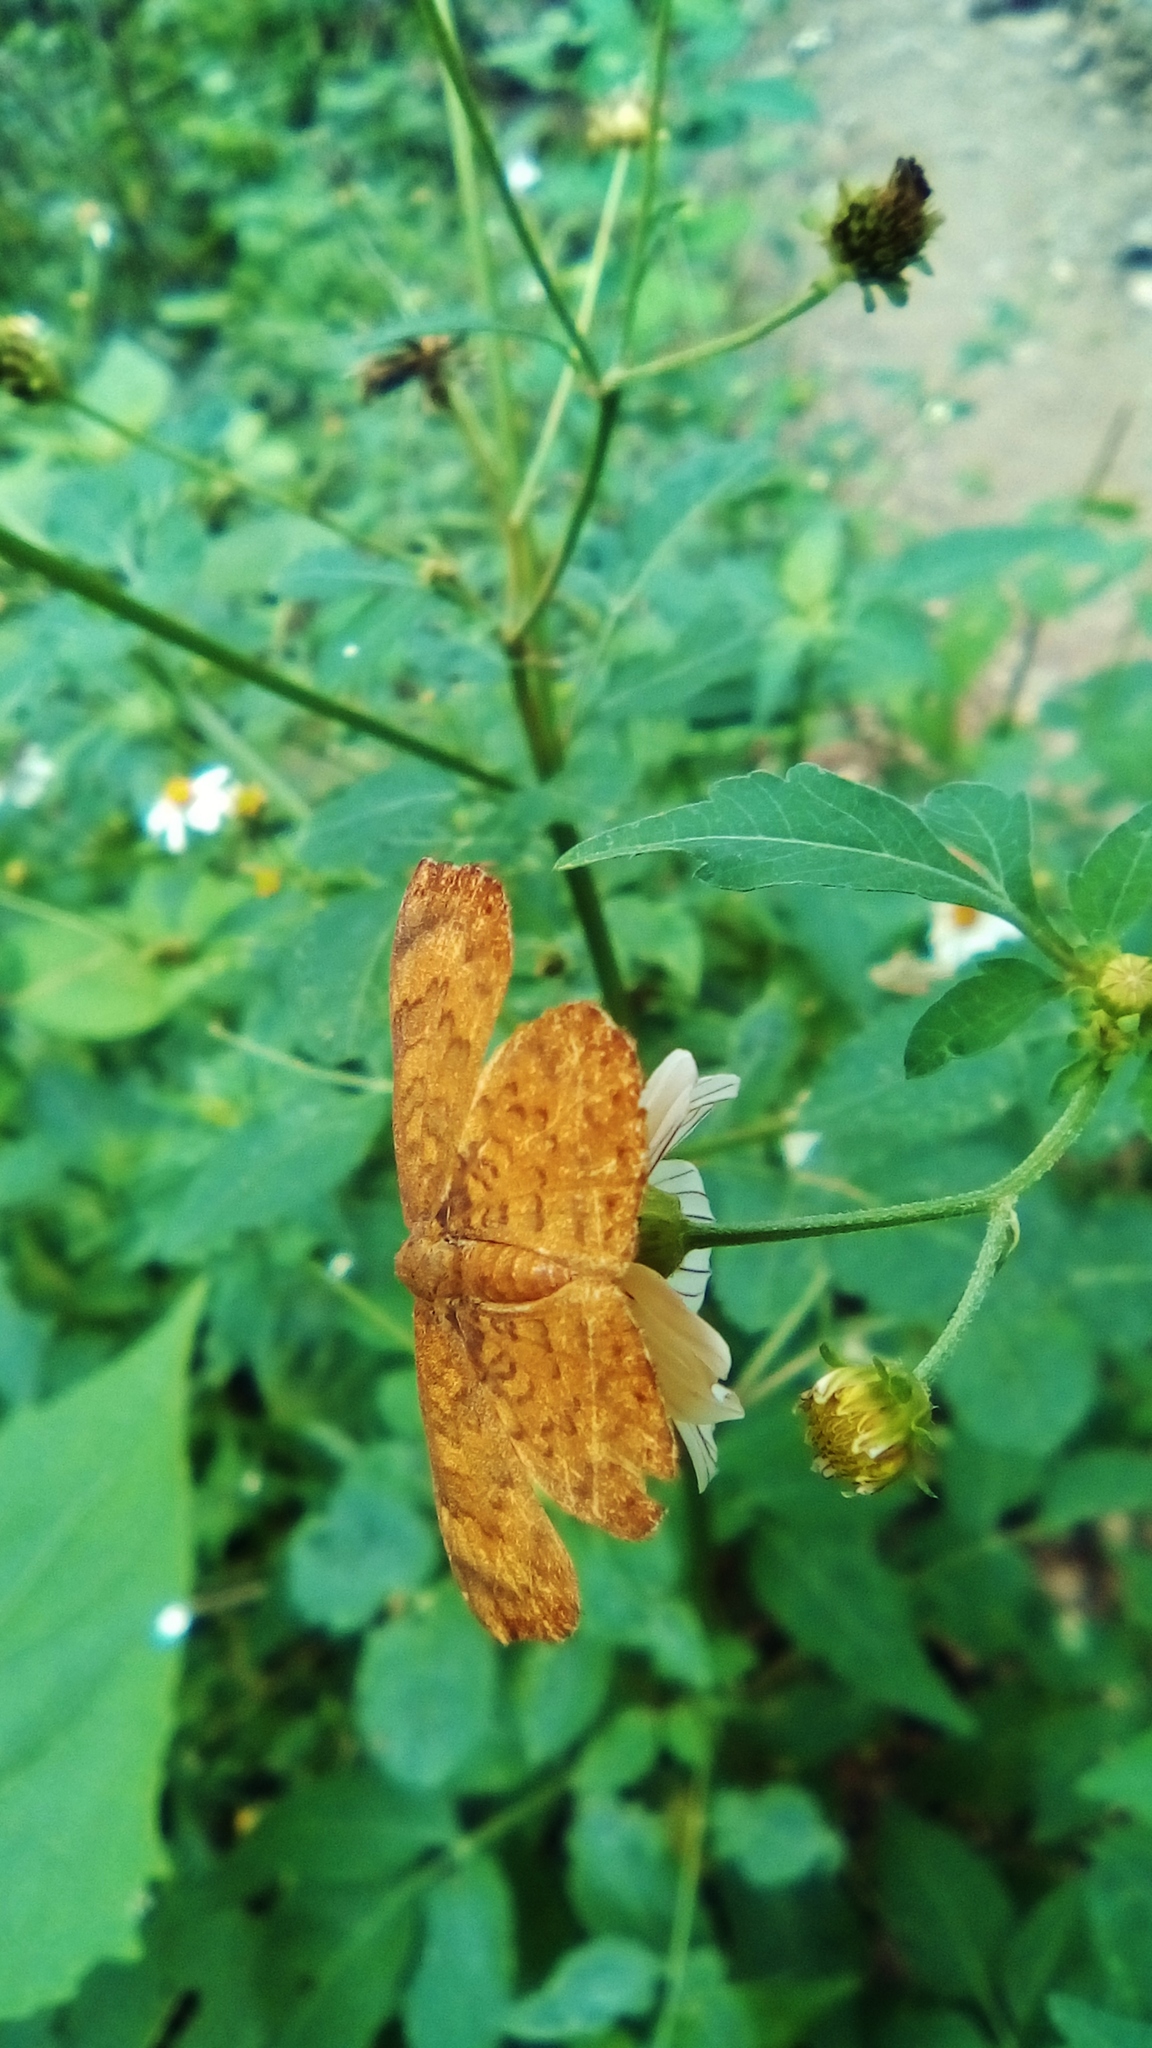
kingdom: Animalia
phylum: Arthropoda
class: Insecta
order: Lepidoptera
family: Lycaenidae
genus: Emesis
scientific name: Emesis tenedia
